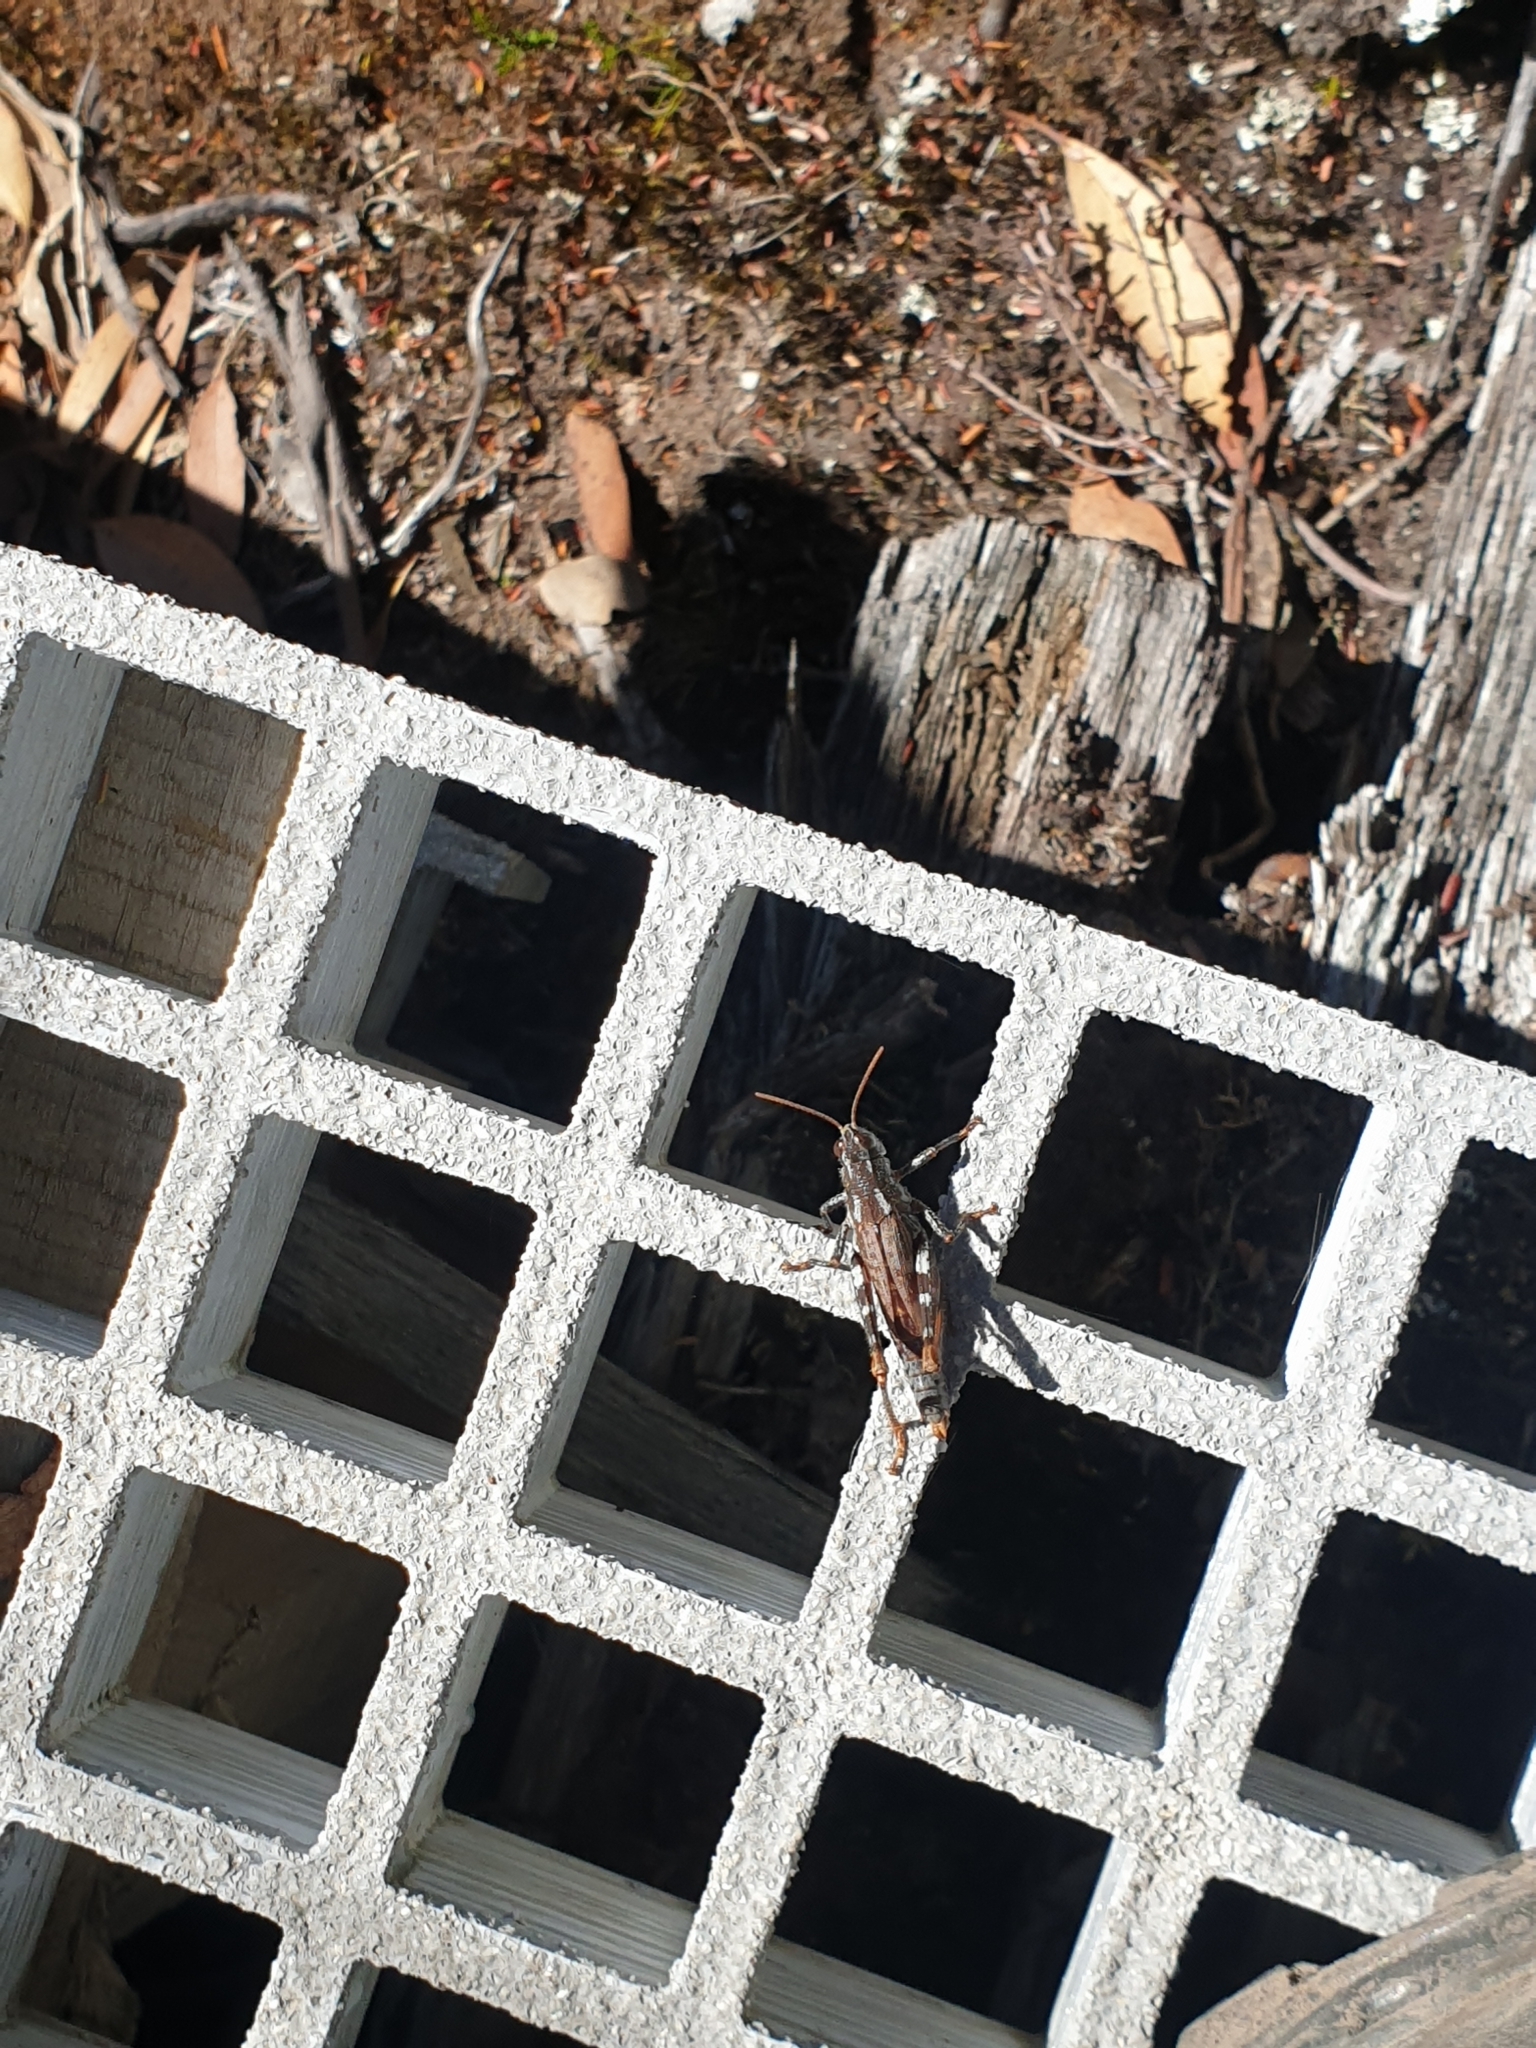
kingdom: Animalia
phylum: Arthropoda
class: Insecta
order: Orthoptera
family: Acrididae
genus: Truganinia
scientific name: Truganinia bauerae
